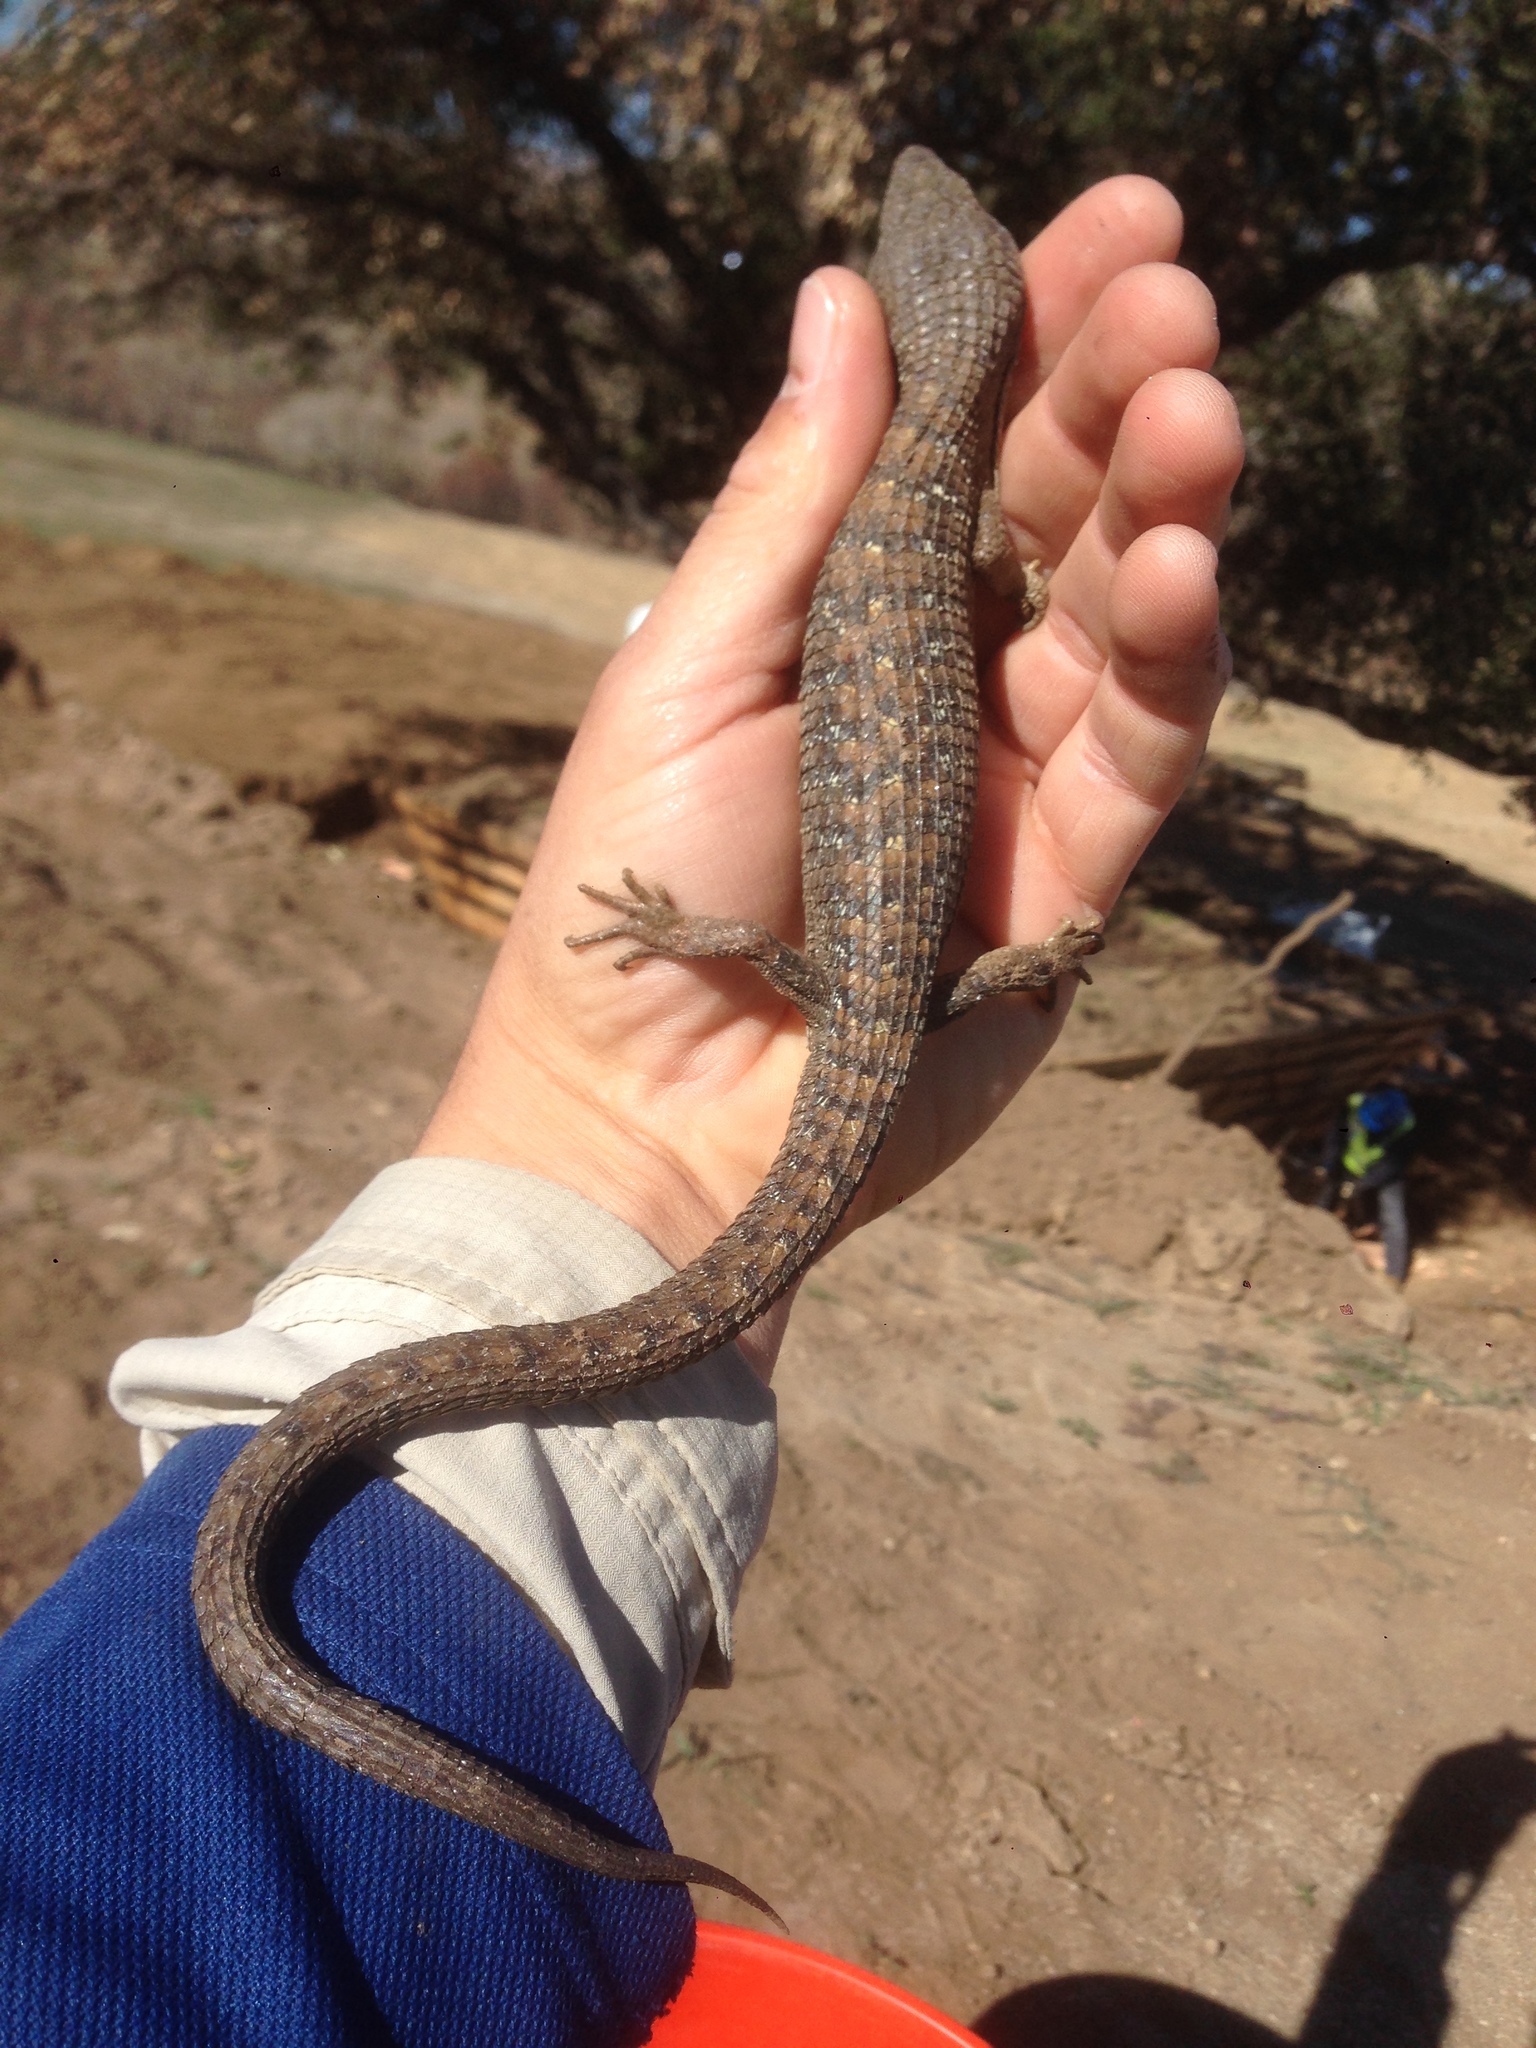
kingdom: Animalia
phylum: Chordata
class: Squamata
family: Anguidae
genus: Elgaria
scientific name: Elgaria multicarinata
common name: Southern alligator lizard
